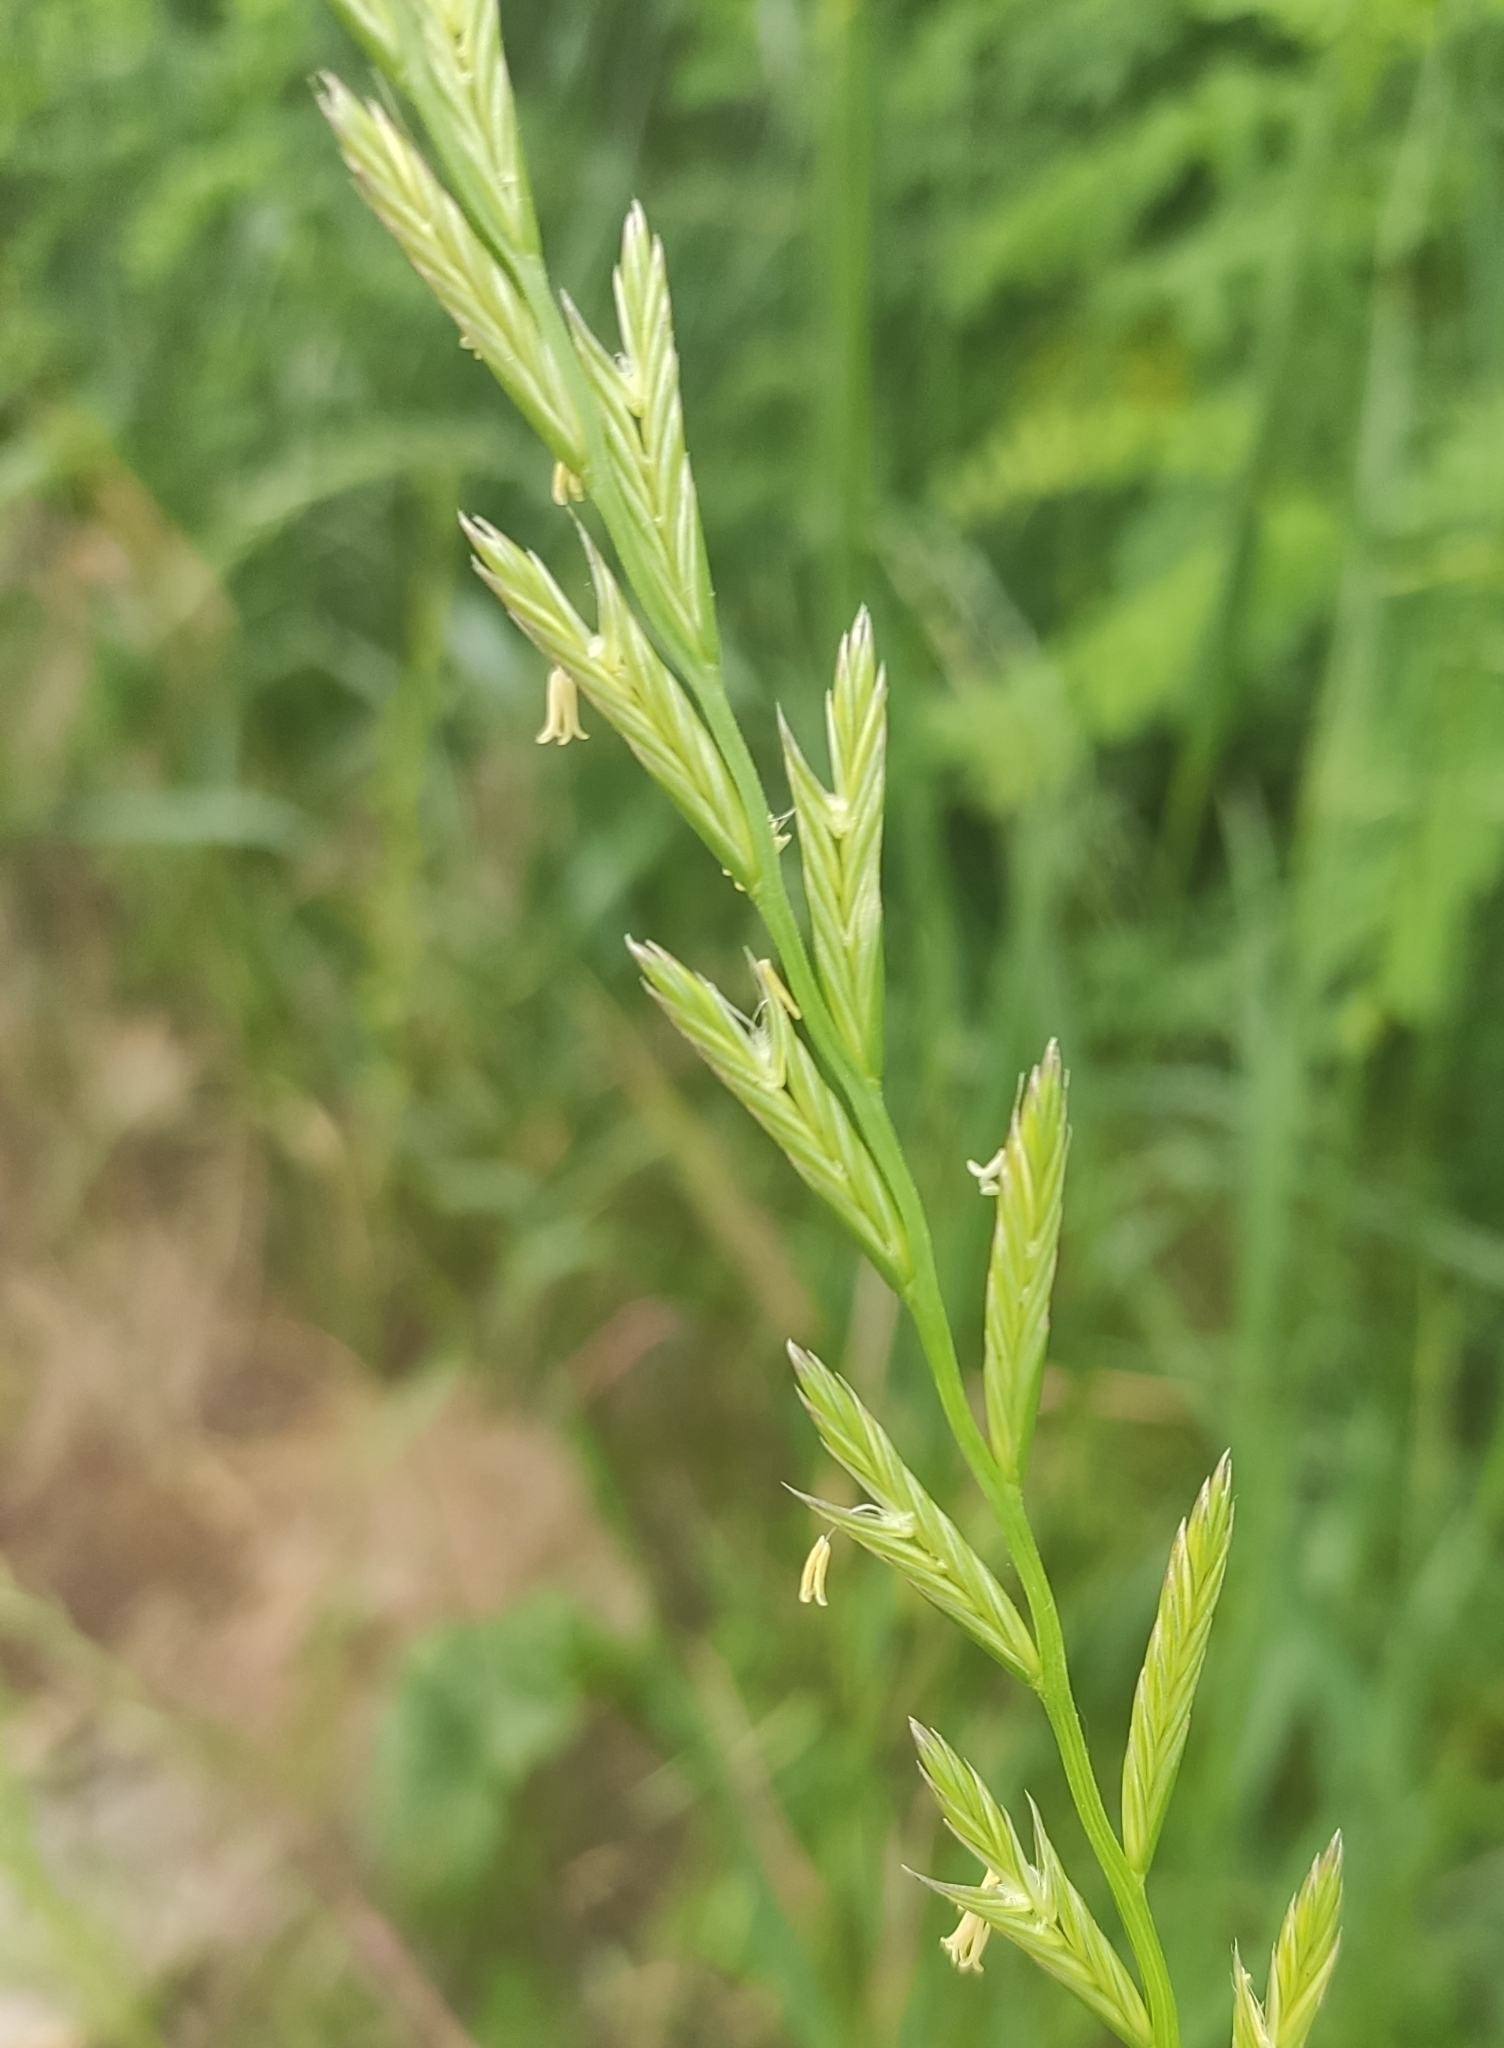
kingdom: Plantae
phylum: Tracheophyta
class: Liliopsida
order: Poales
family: Poaceae
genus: Lolium
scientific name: Lolium perenne
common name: Perennial ryegrass
